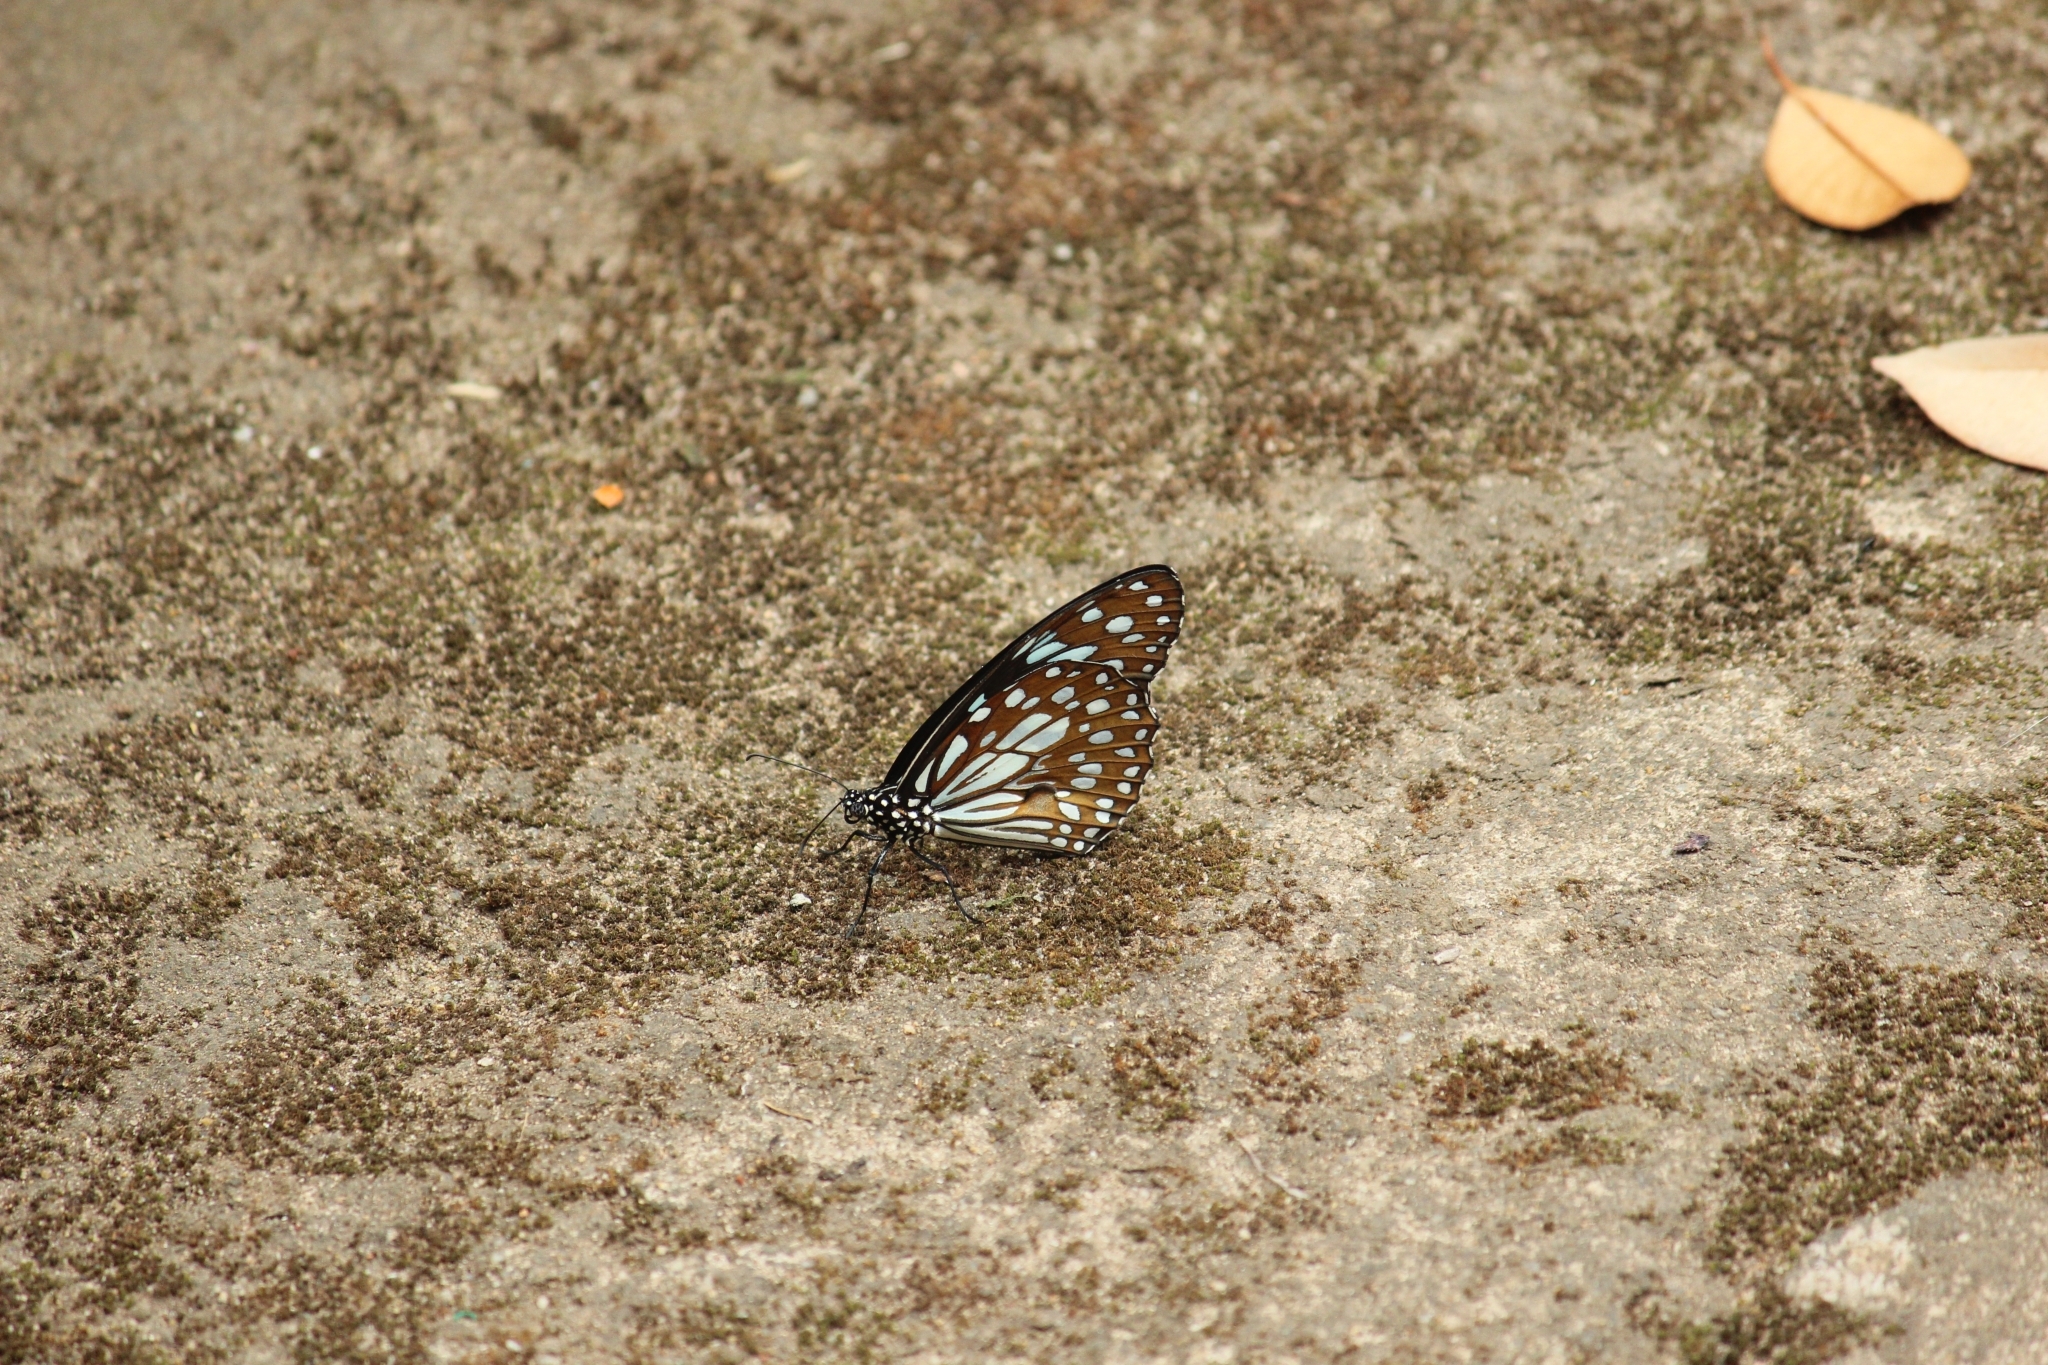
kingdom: Animalia
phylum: Arthropoda
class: Insecta
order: Lepidoptera
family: Nymphalidae
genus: Tirumala
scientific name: Tirumala limniace
